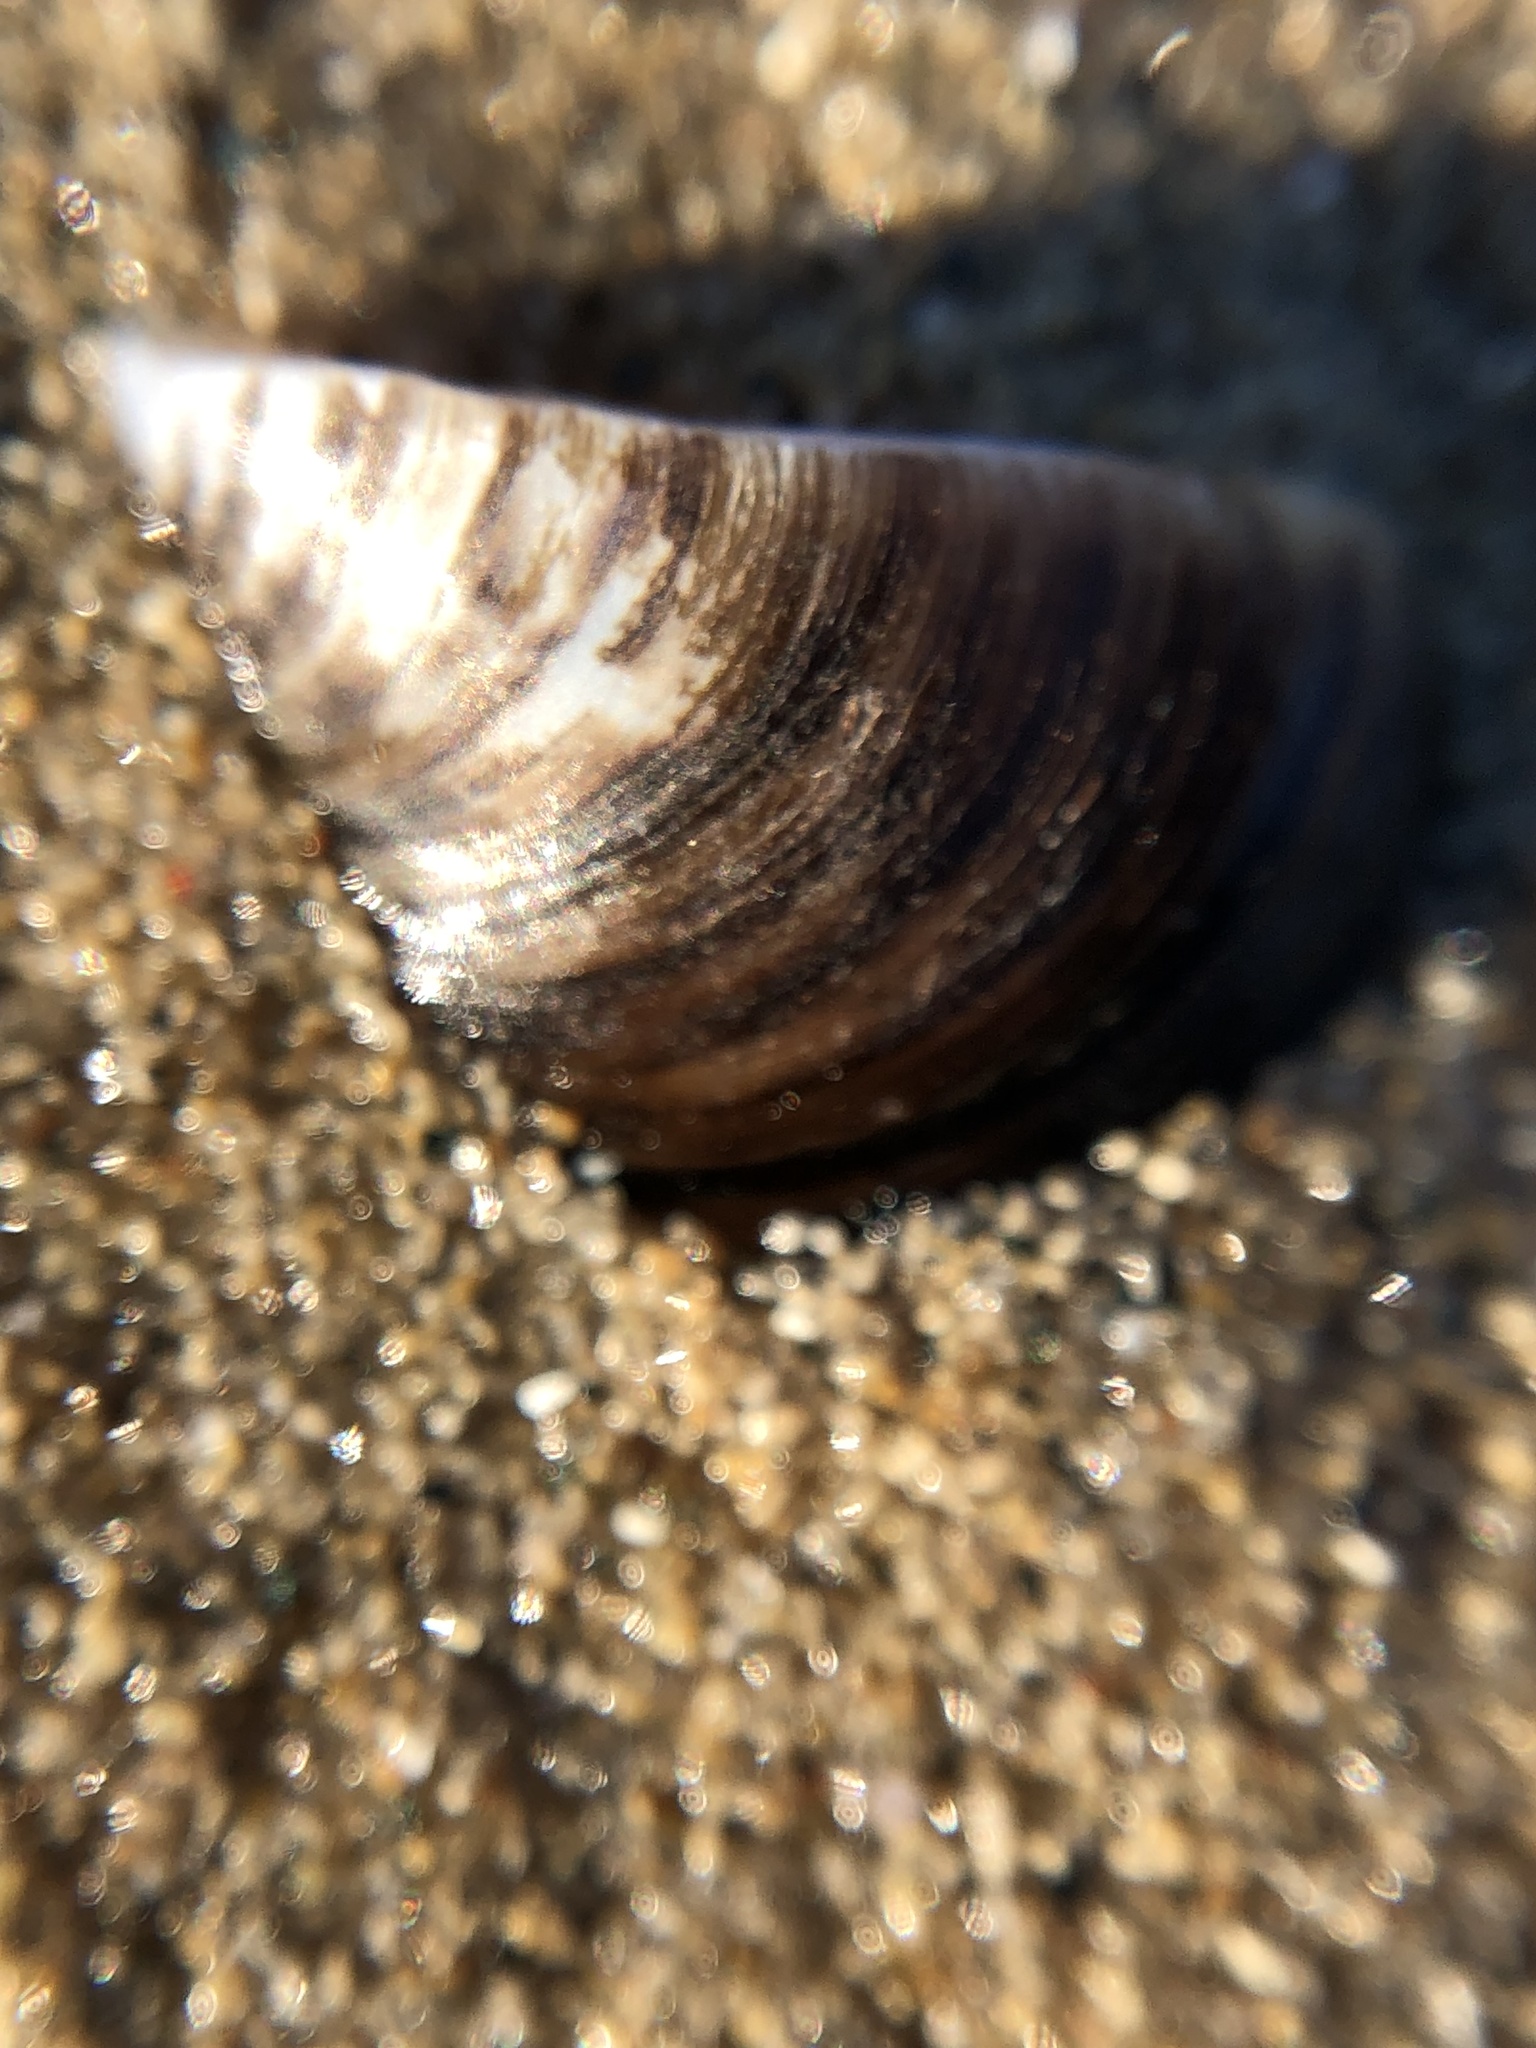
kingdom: Animalia
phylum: Mollusca
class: Bivalvia
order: Myida
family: Dreissenidae
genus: Dreissena
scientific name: Dreissena polymorpha
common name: Zebra mussel
